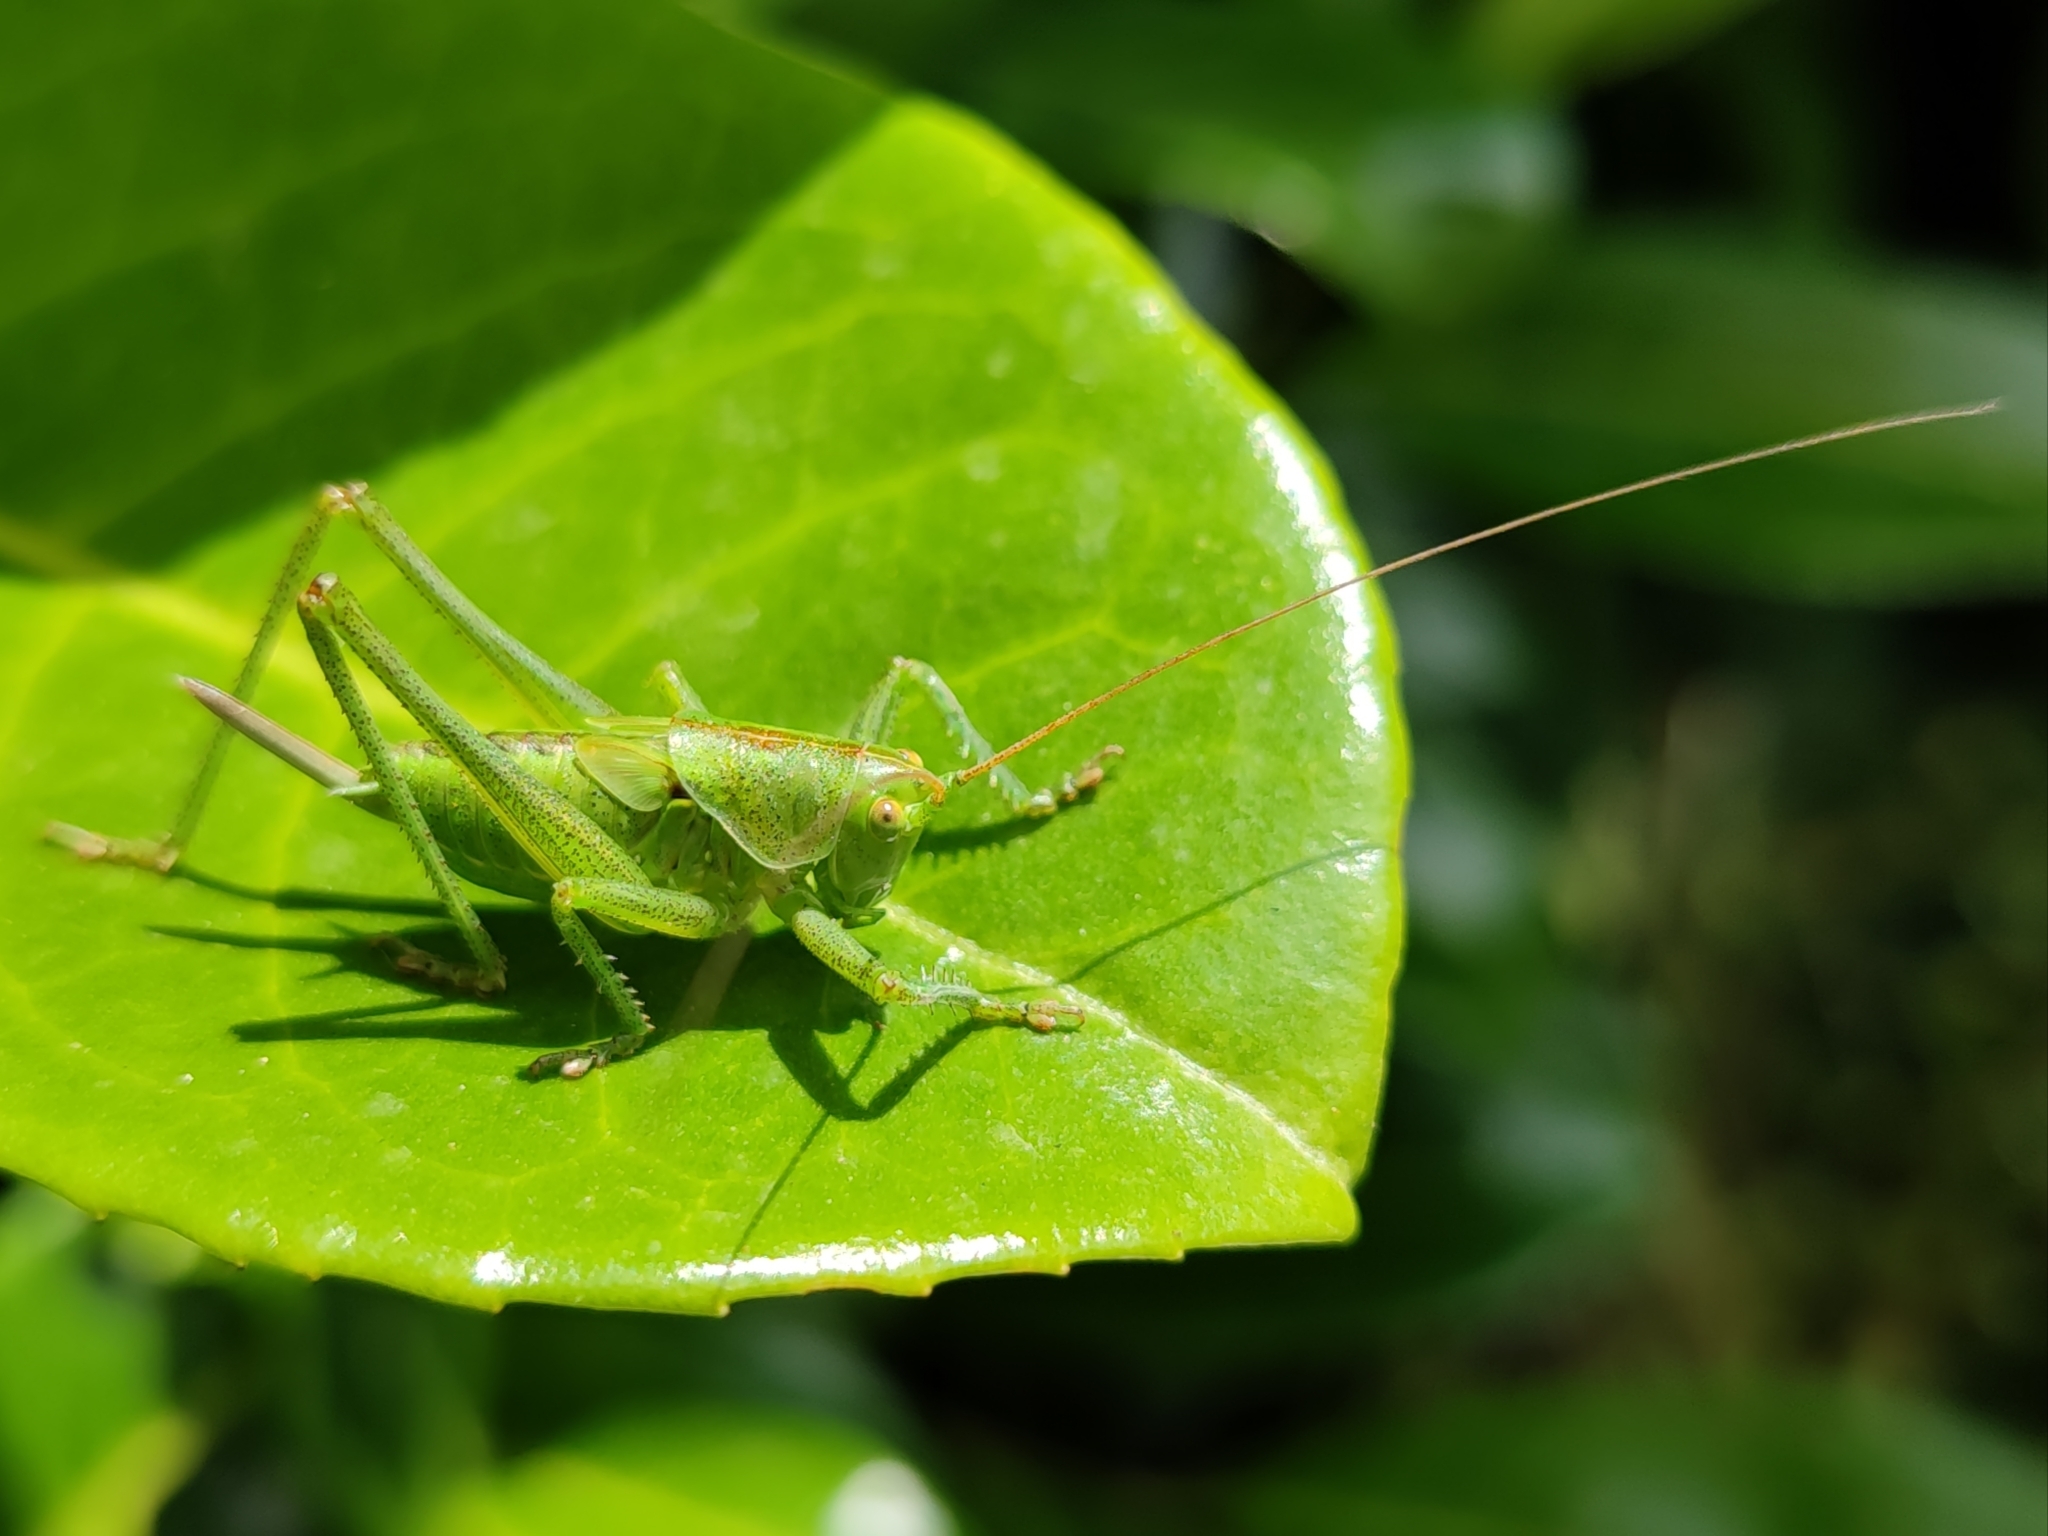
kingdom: Animalia
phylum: Arthropoda
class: Insecta
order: Orthoptera
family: Tettigoniidae
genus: Tettigonia
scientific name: Tettigonia viridissima
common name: Great green bush-cricket
